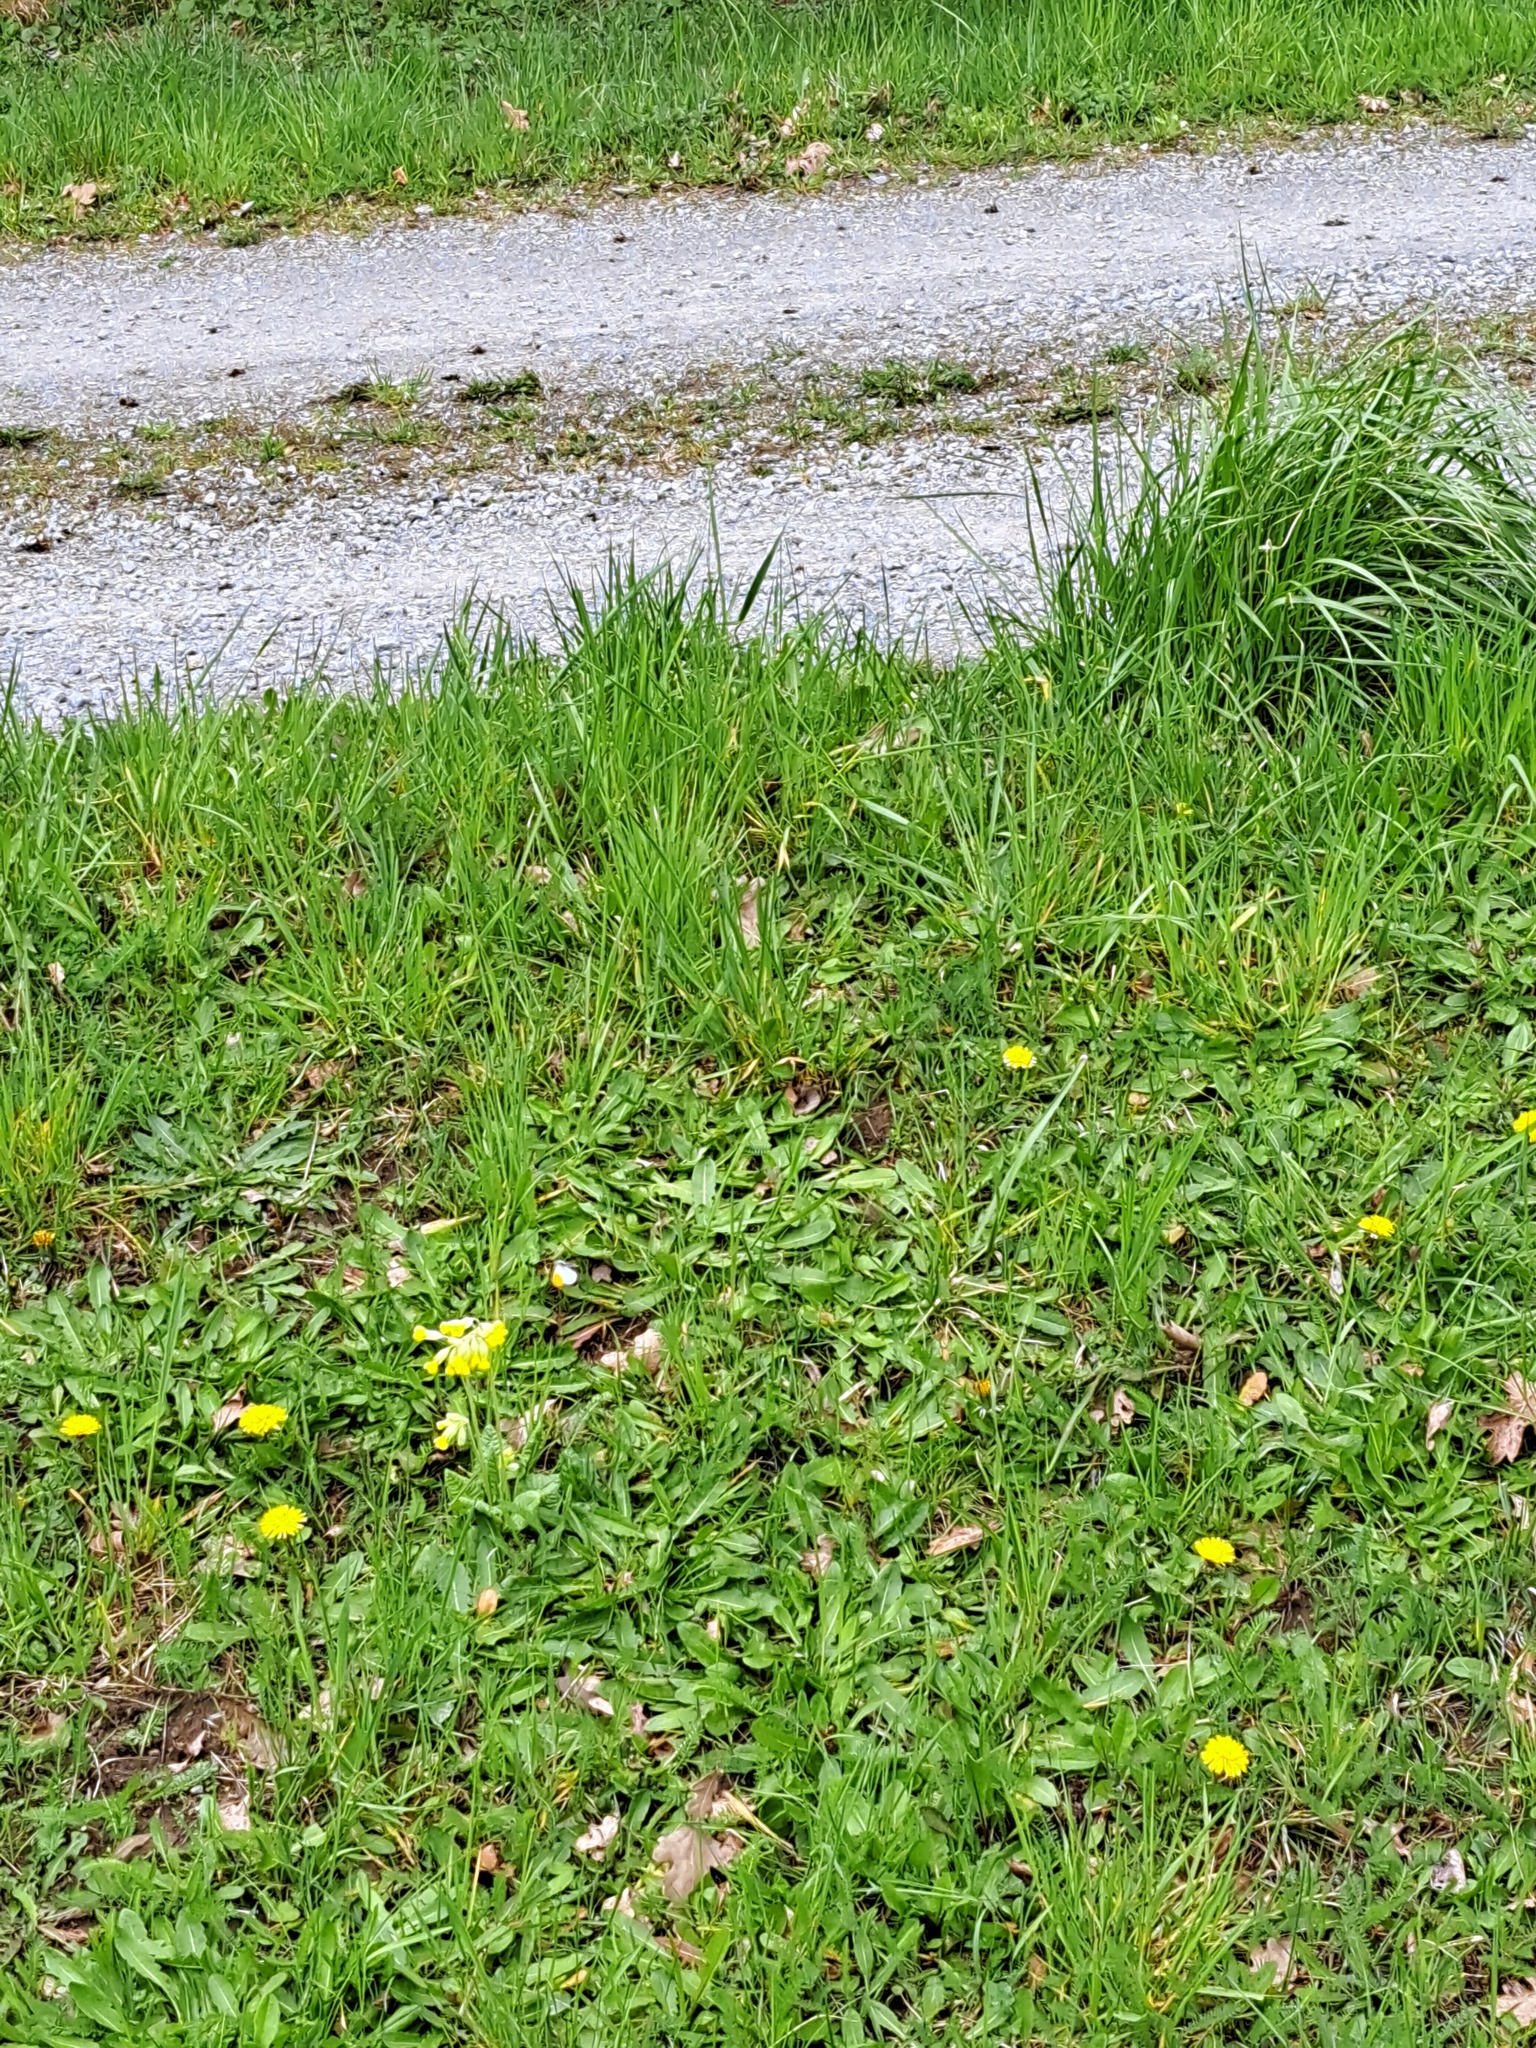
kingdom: Animalia
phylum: Arthropoda
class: Insecta
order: Lepidoptera
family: Pieridae
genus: Anthocharis
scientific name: Anthocharis cardamines
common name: Orange-tip
